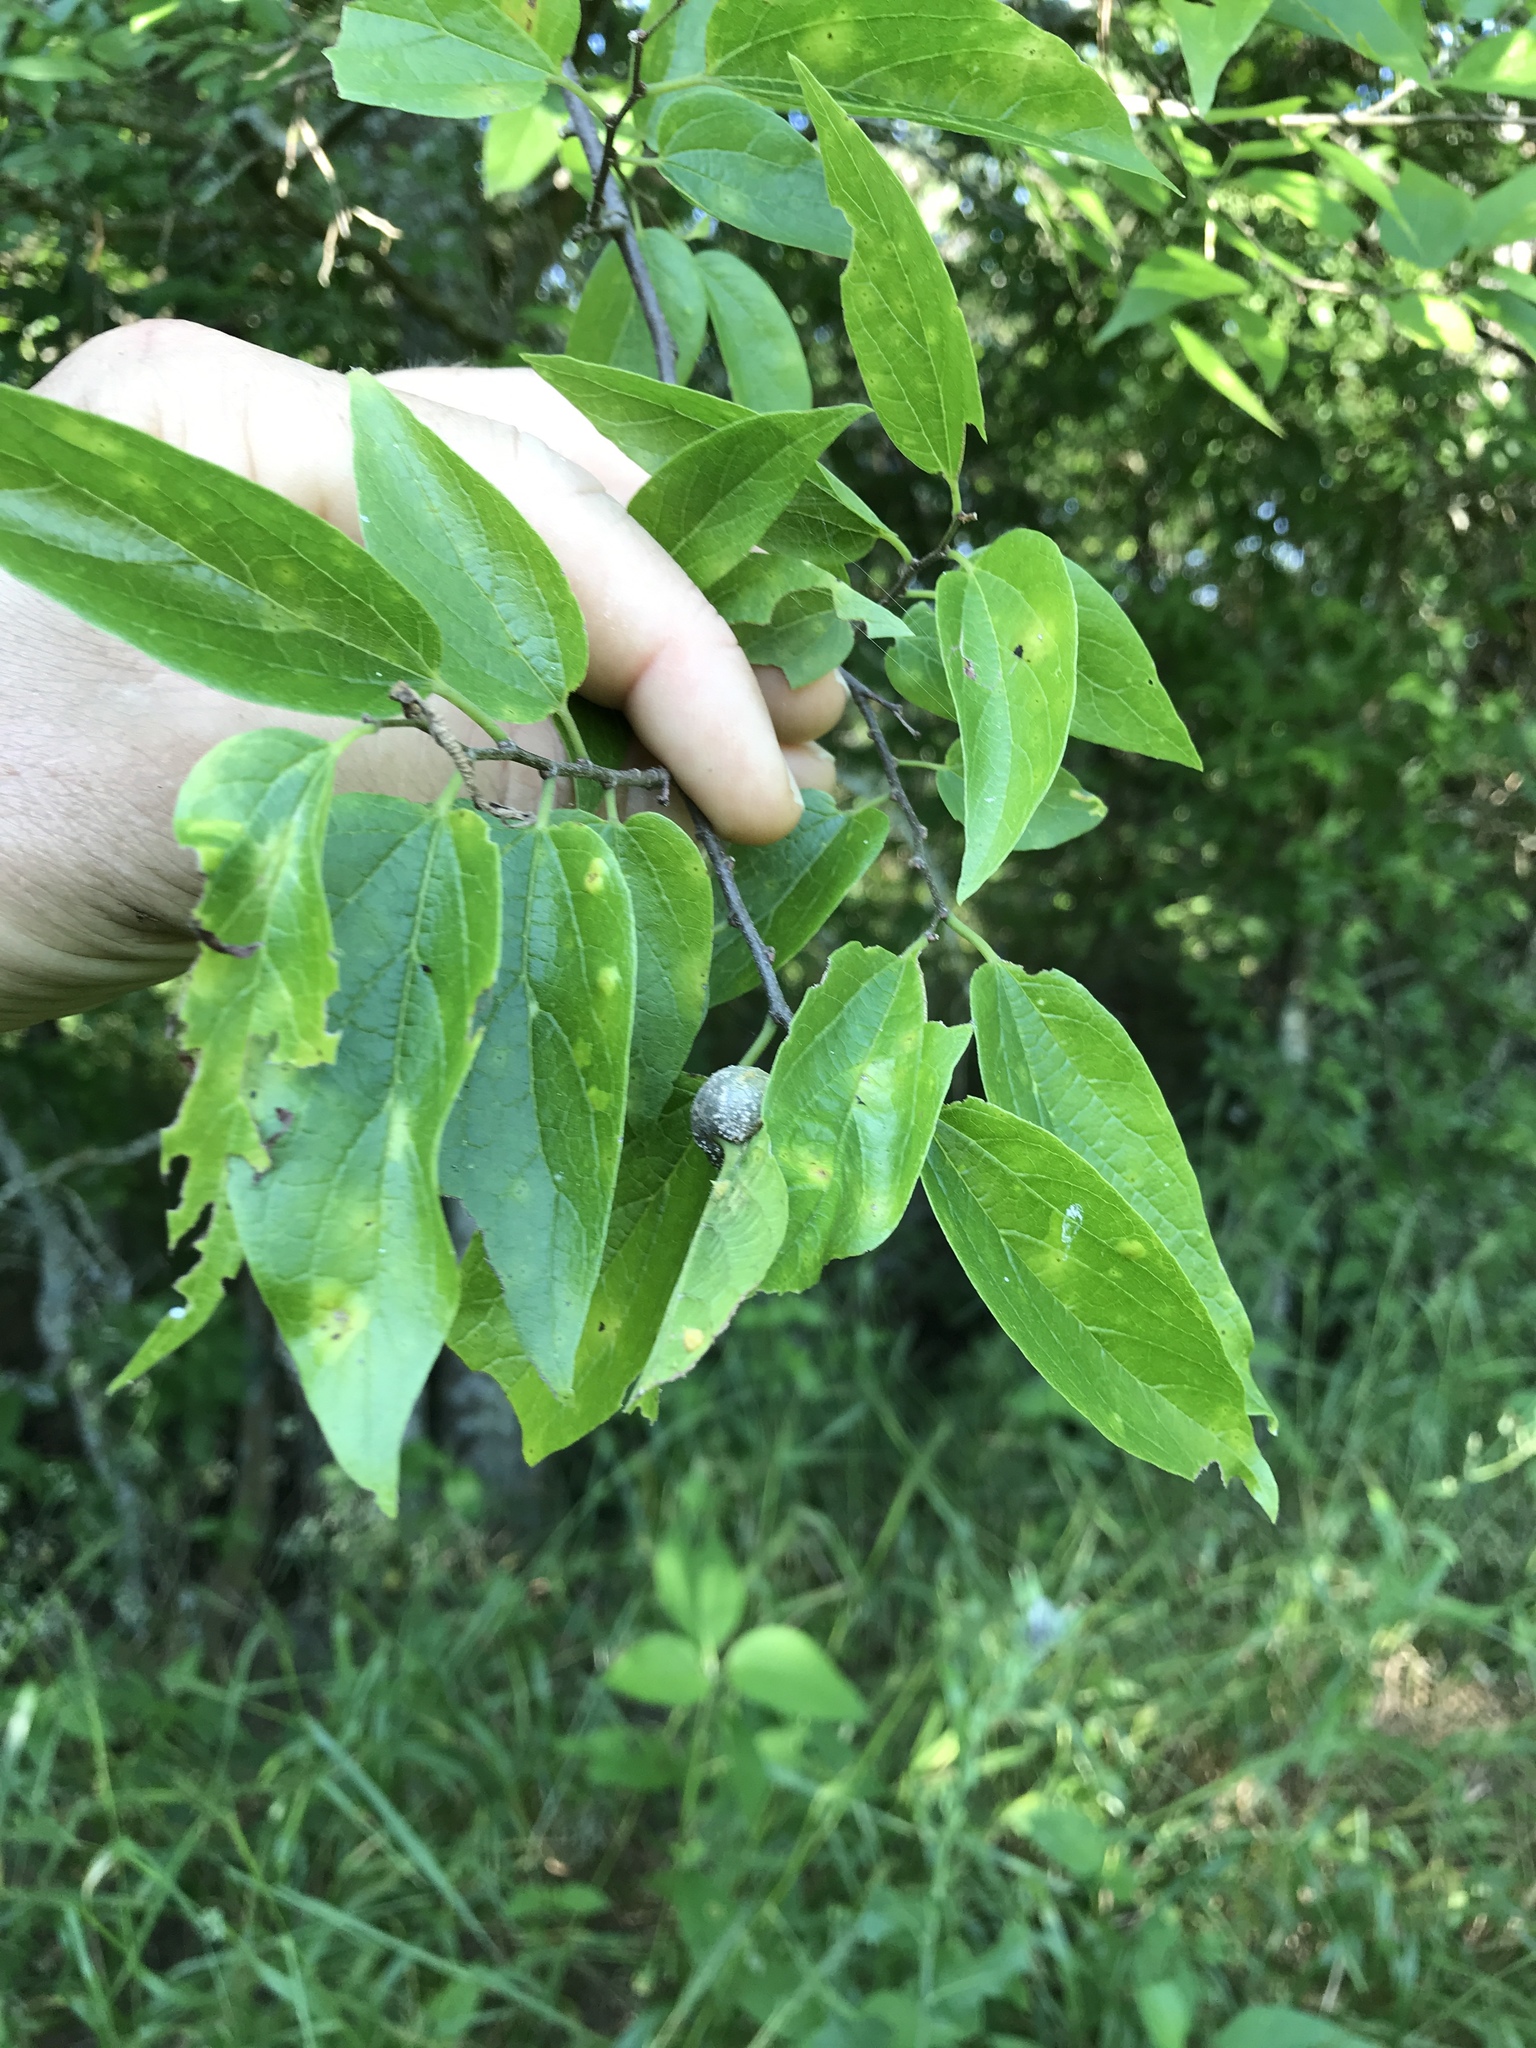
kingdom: Plantae
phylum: Tracheophyta
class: Magnoliopsida
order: Rosales
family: Cannabaceae
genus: Celtis
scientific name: Celtis laevigata
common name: Sugarberry
